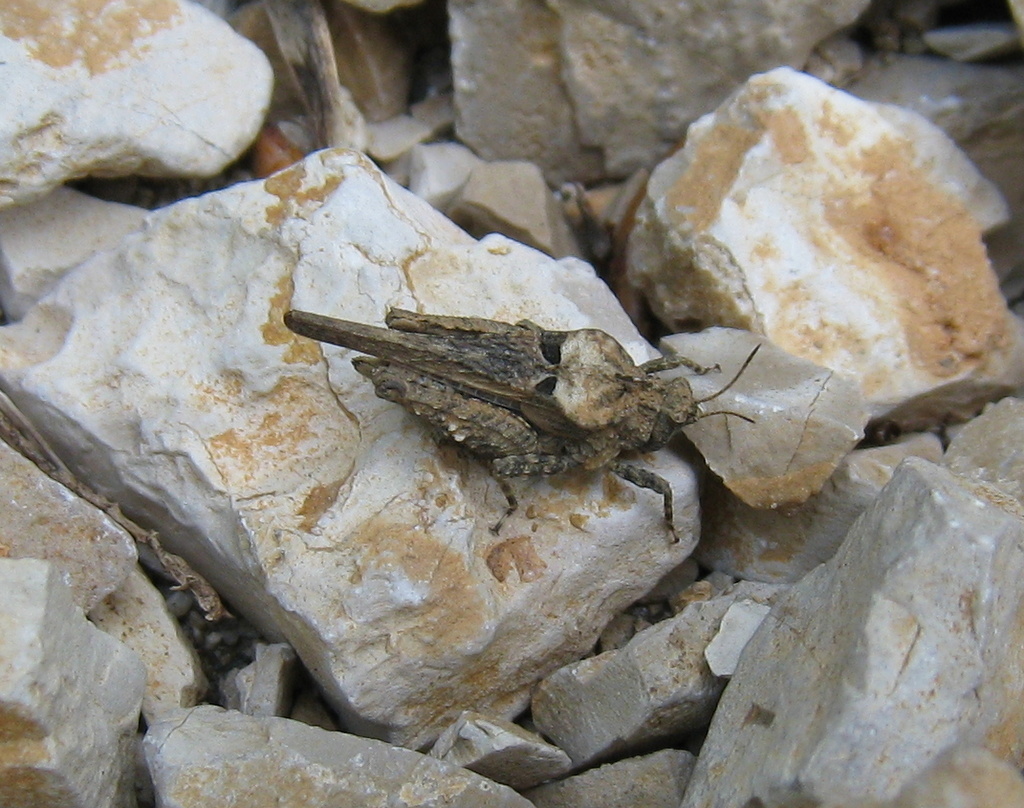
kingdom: Animalia
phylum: Arthropoda
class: Insecta
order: Orthoptera
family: Tetrigidae
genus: Tetrix
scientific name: Tetrix depressa
